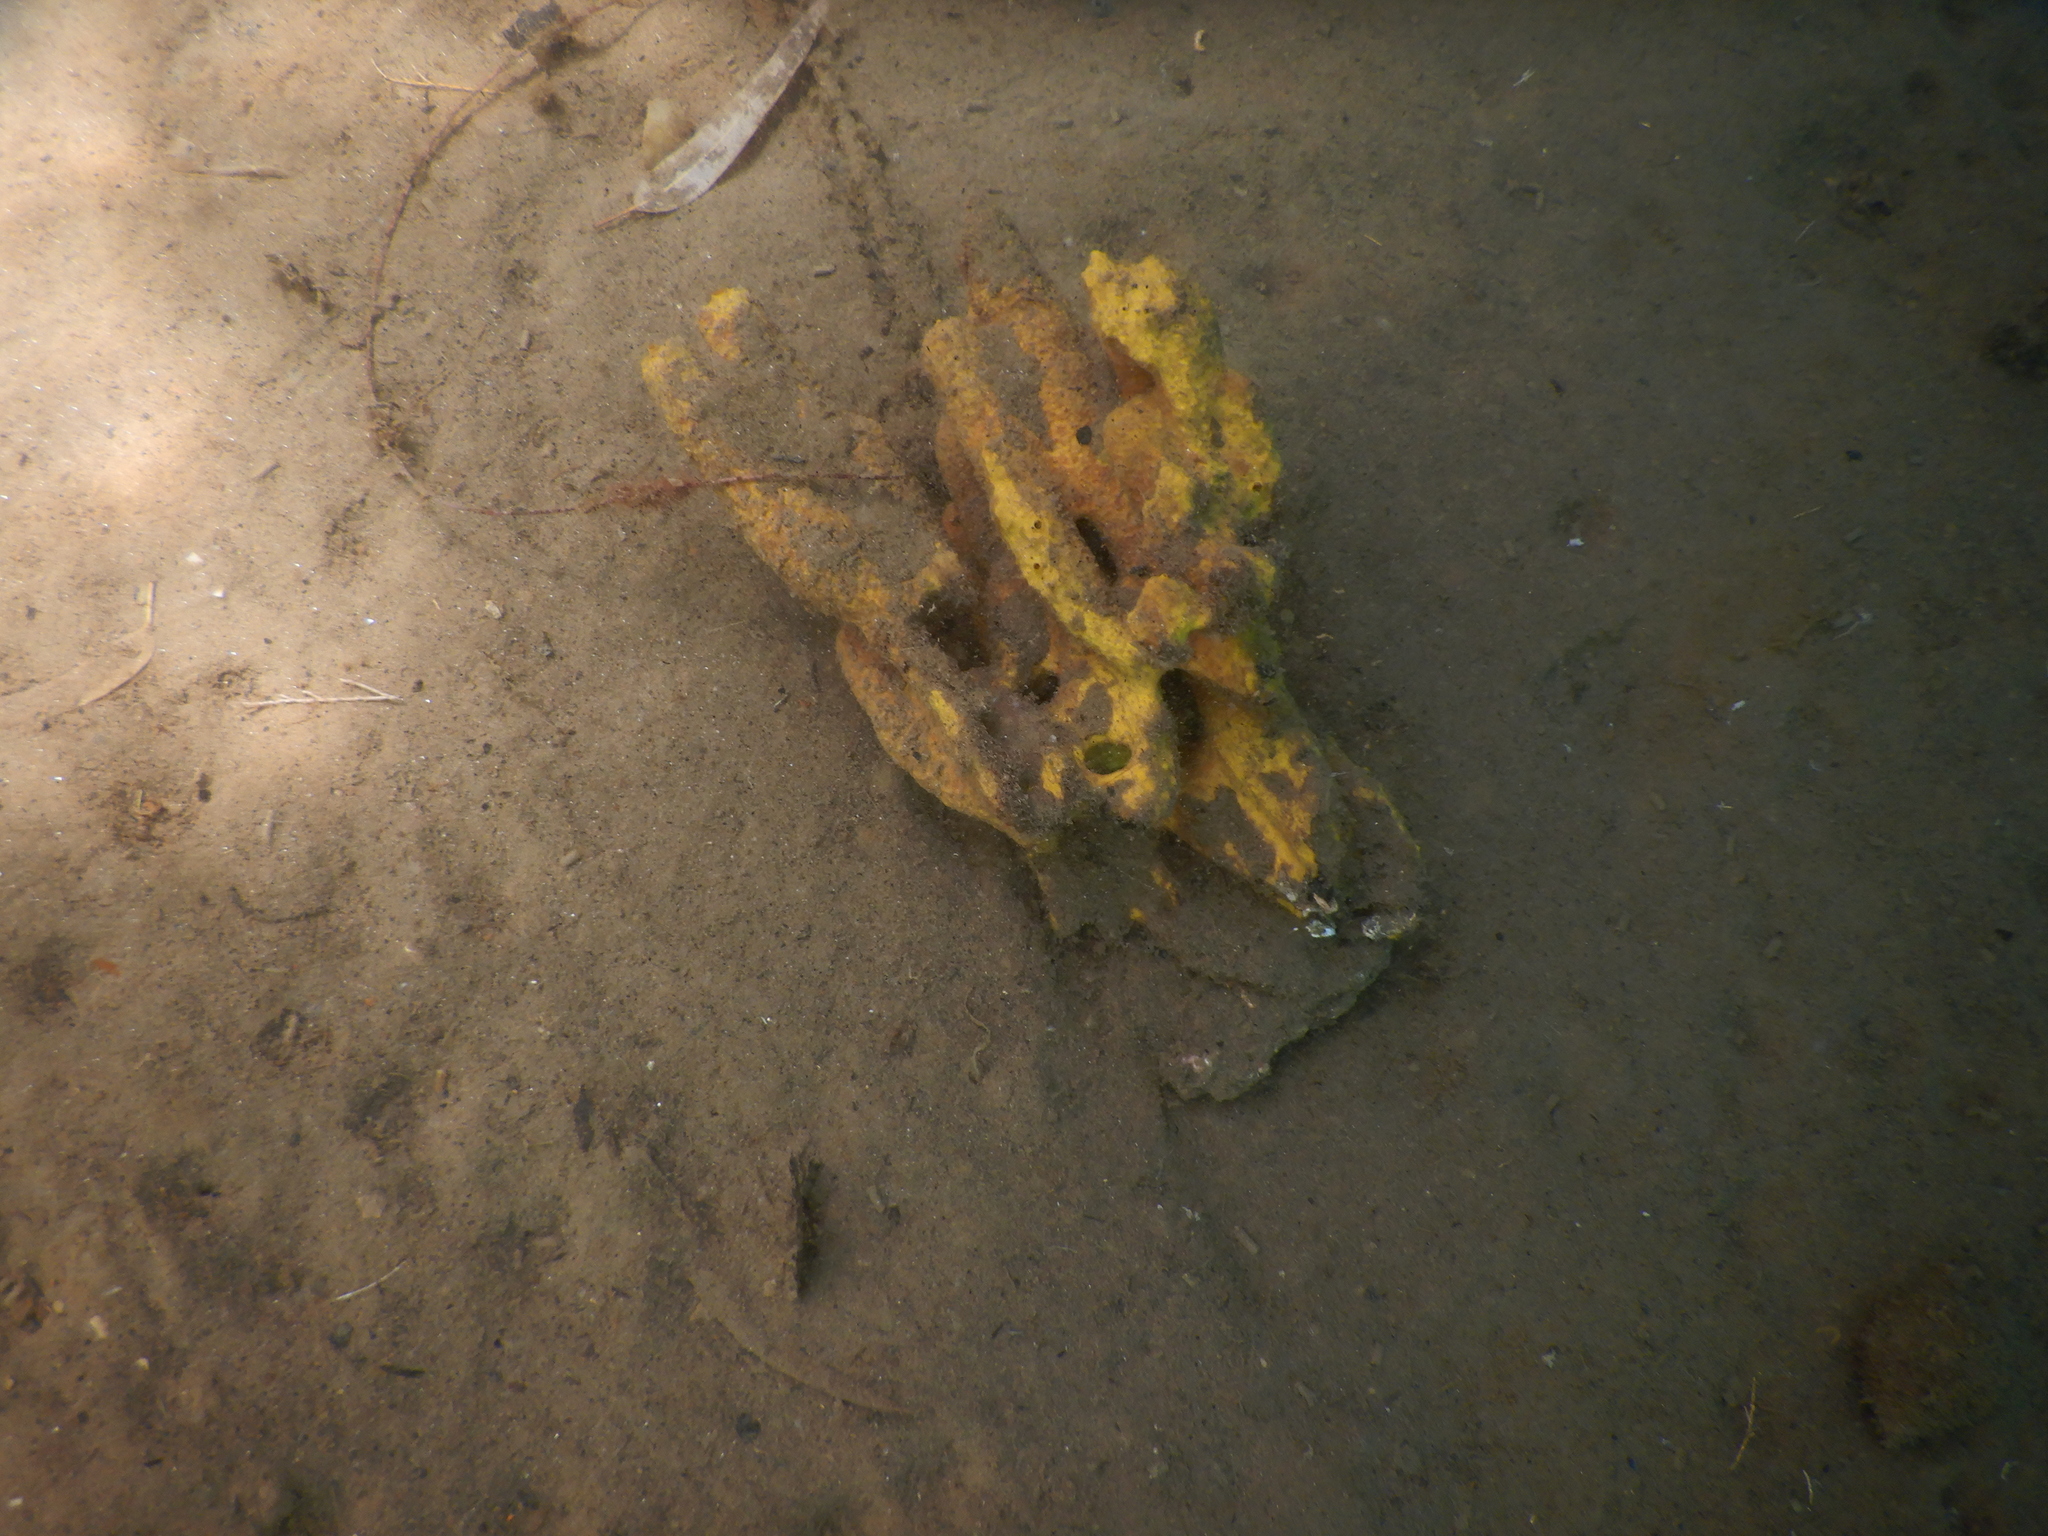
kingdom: Animalia
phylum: Porifera
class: Demospongiae
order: Verongiida
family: Aplysinidae
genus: Aplysina
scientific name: Aplysina aerophoba
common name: Aureate sponge
